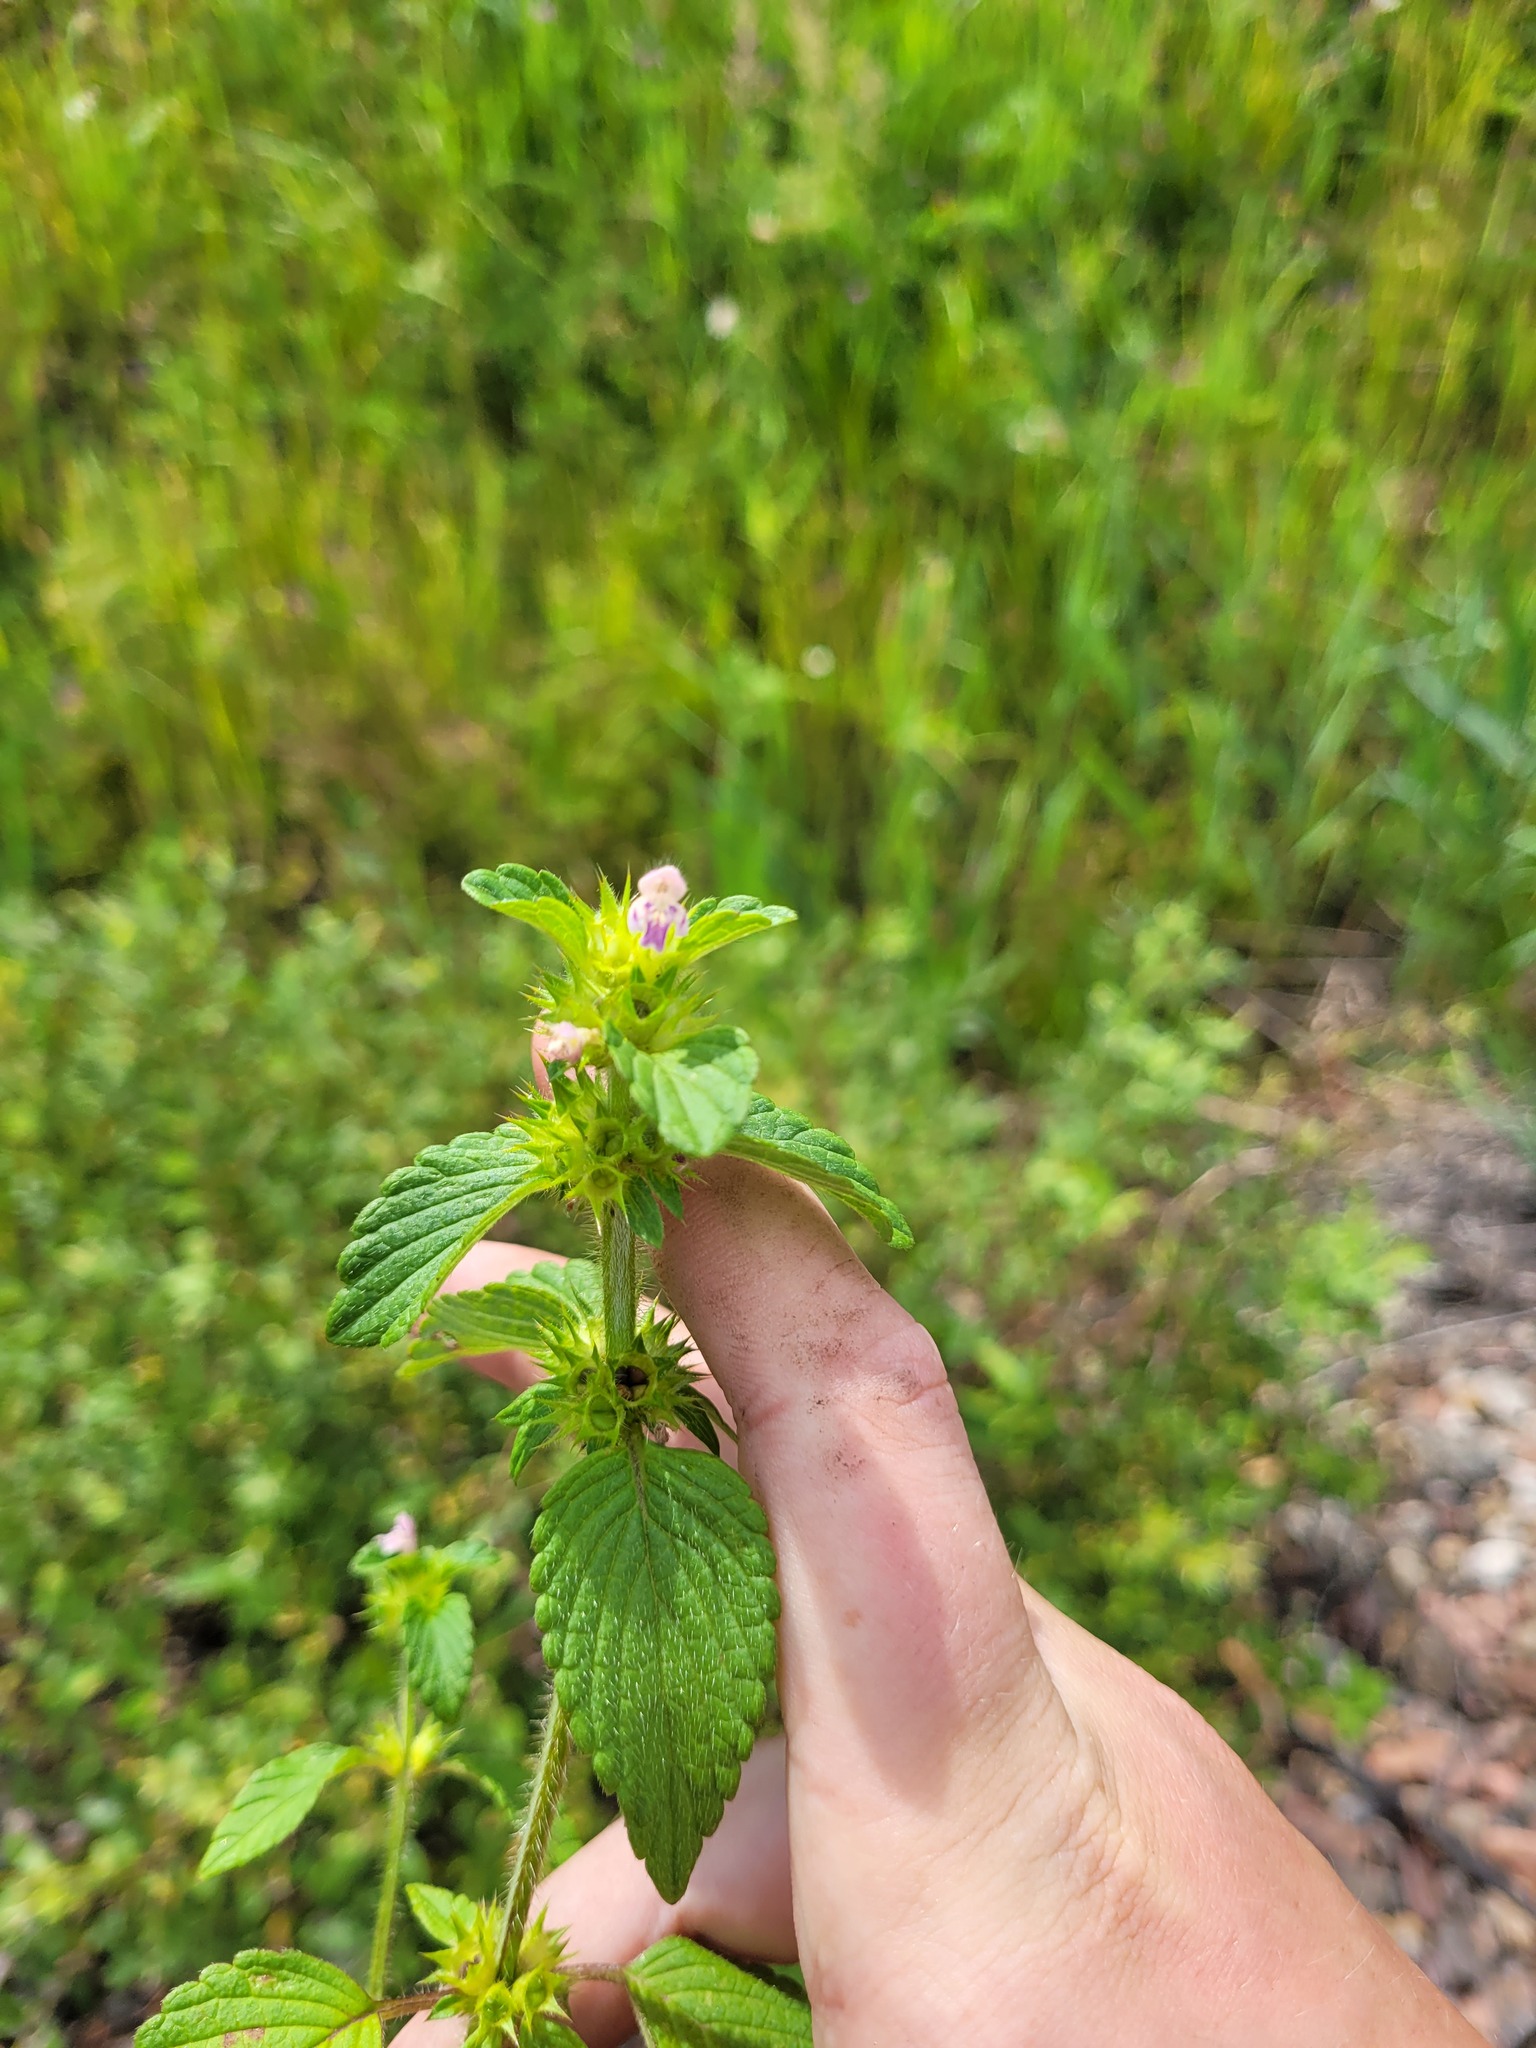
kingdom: Plantae
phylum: Tracheophyta
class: Magnoliopsida
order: Lamiales
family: Lamiaceae
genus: Galeopsis
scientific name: Galeopsis bifida
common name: Bifid hemp-nettle
